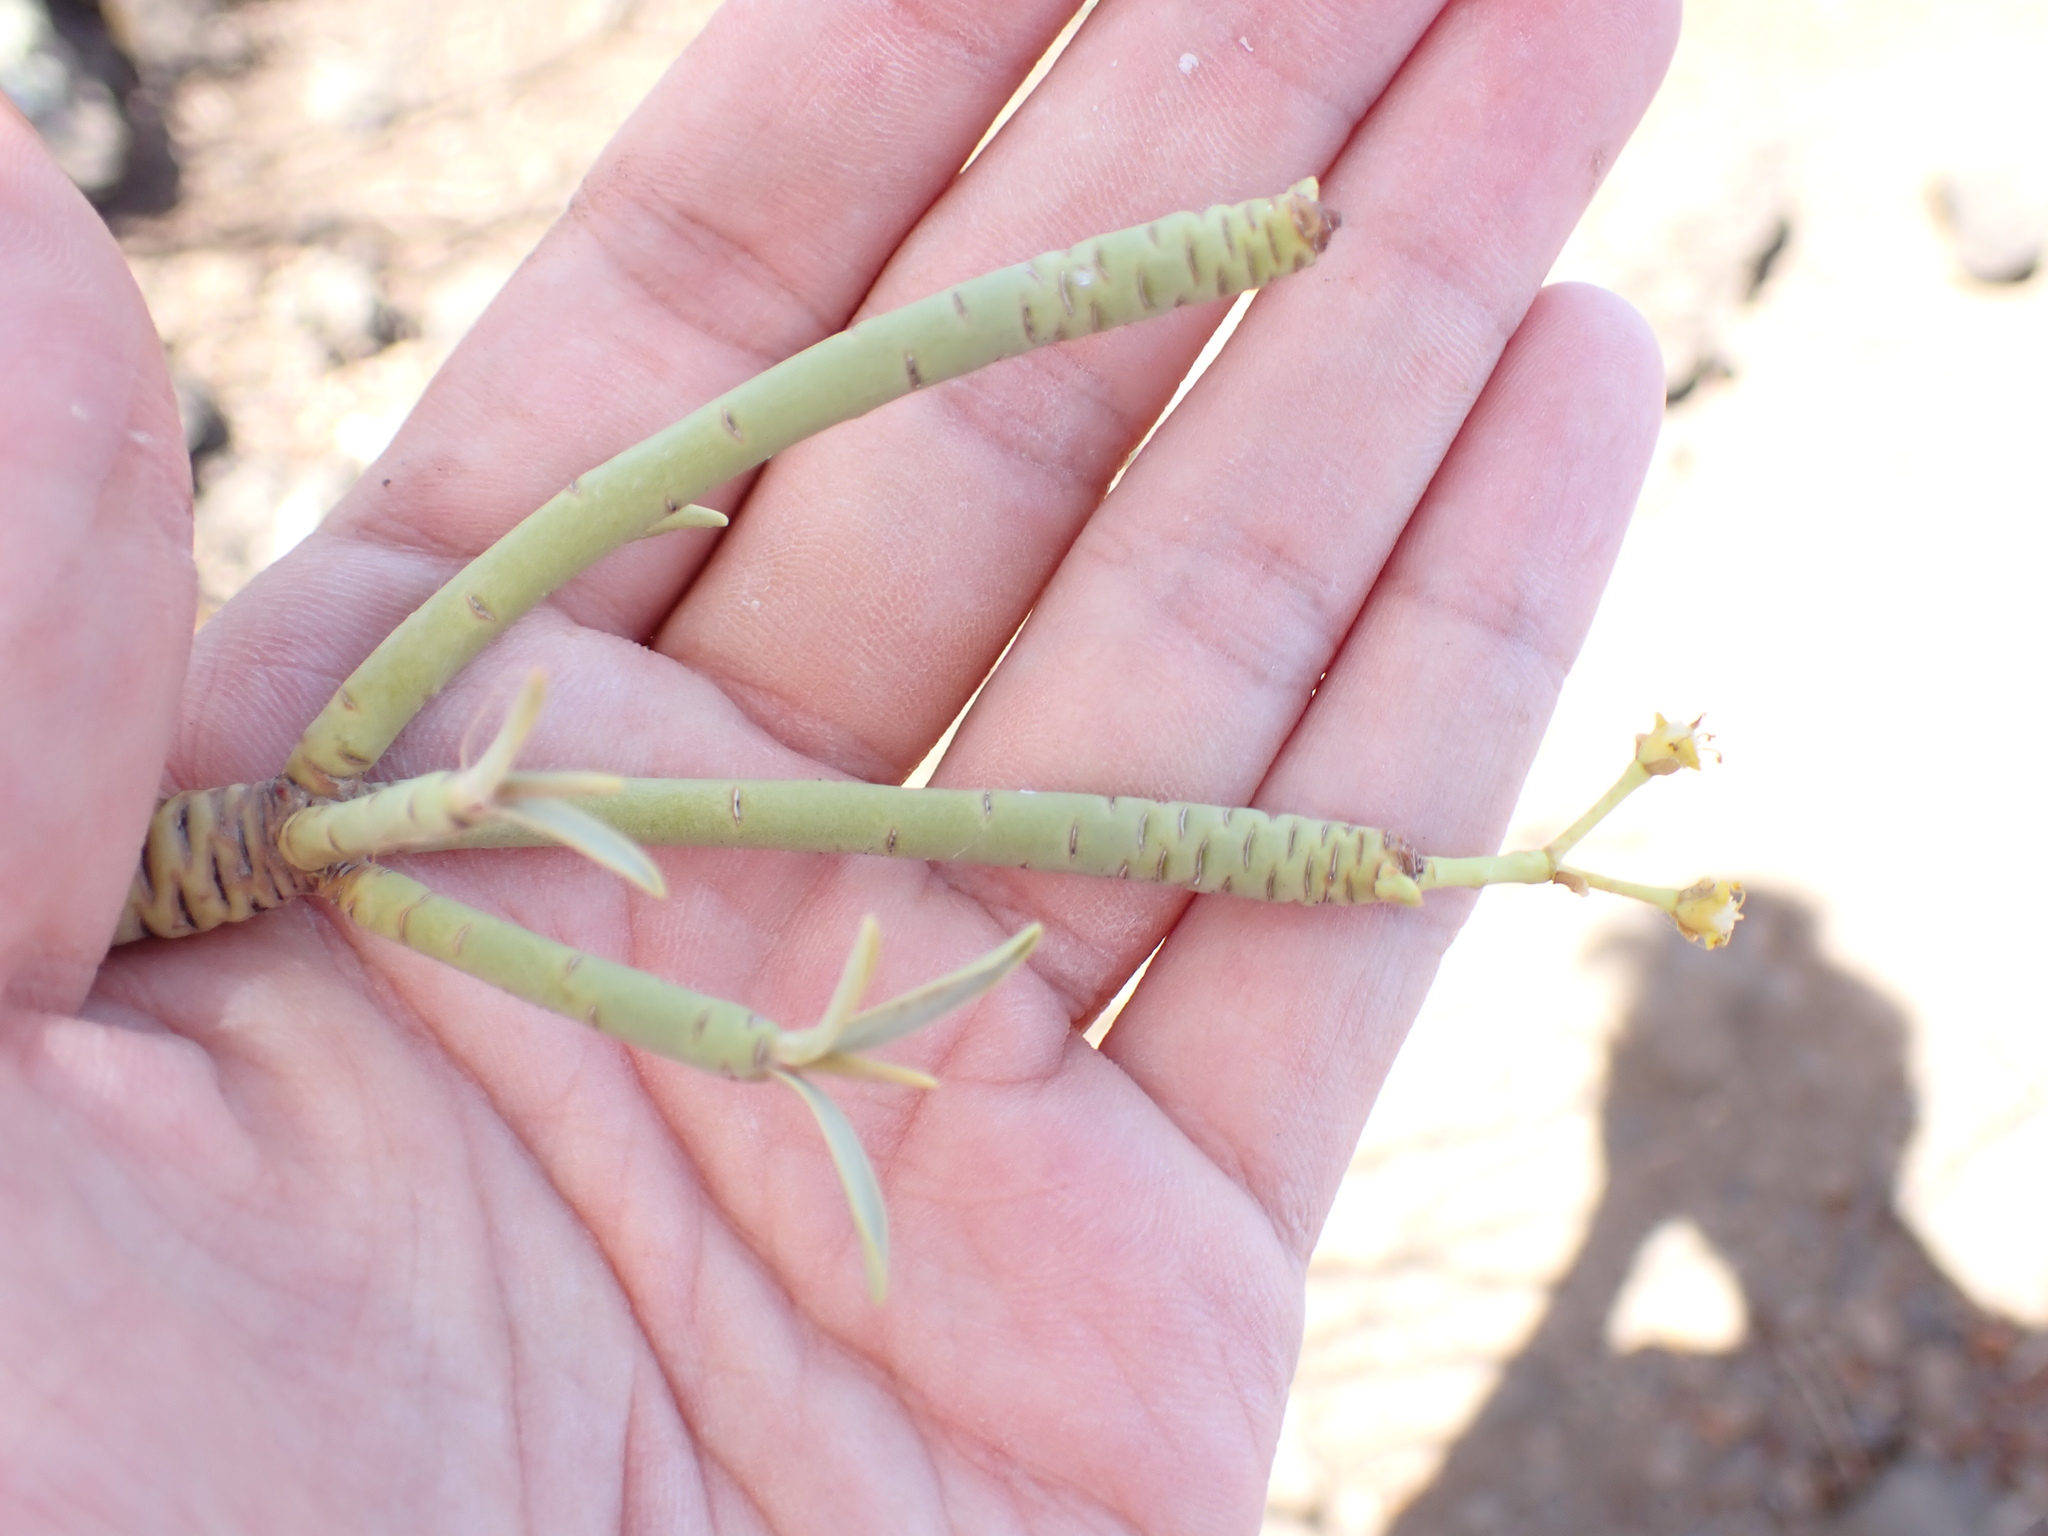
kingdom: Plantae
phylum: Tracheophyta
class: Magnoliopsida
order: Malpighiales
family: Euphorbiaceae
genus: Euphorbia
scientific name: Euphorbia lamarckii
